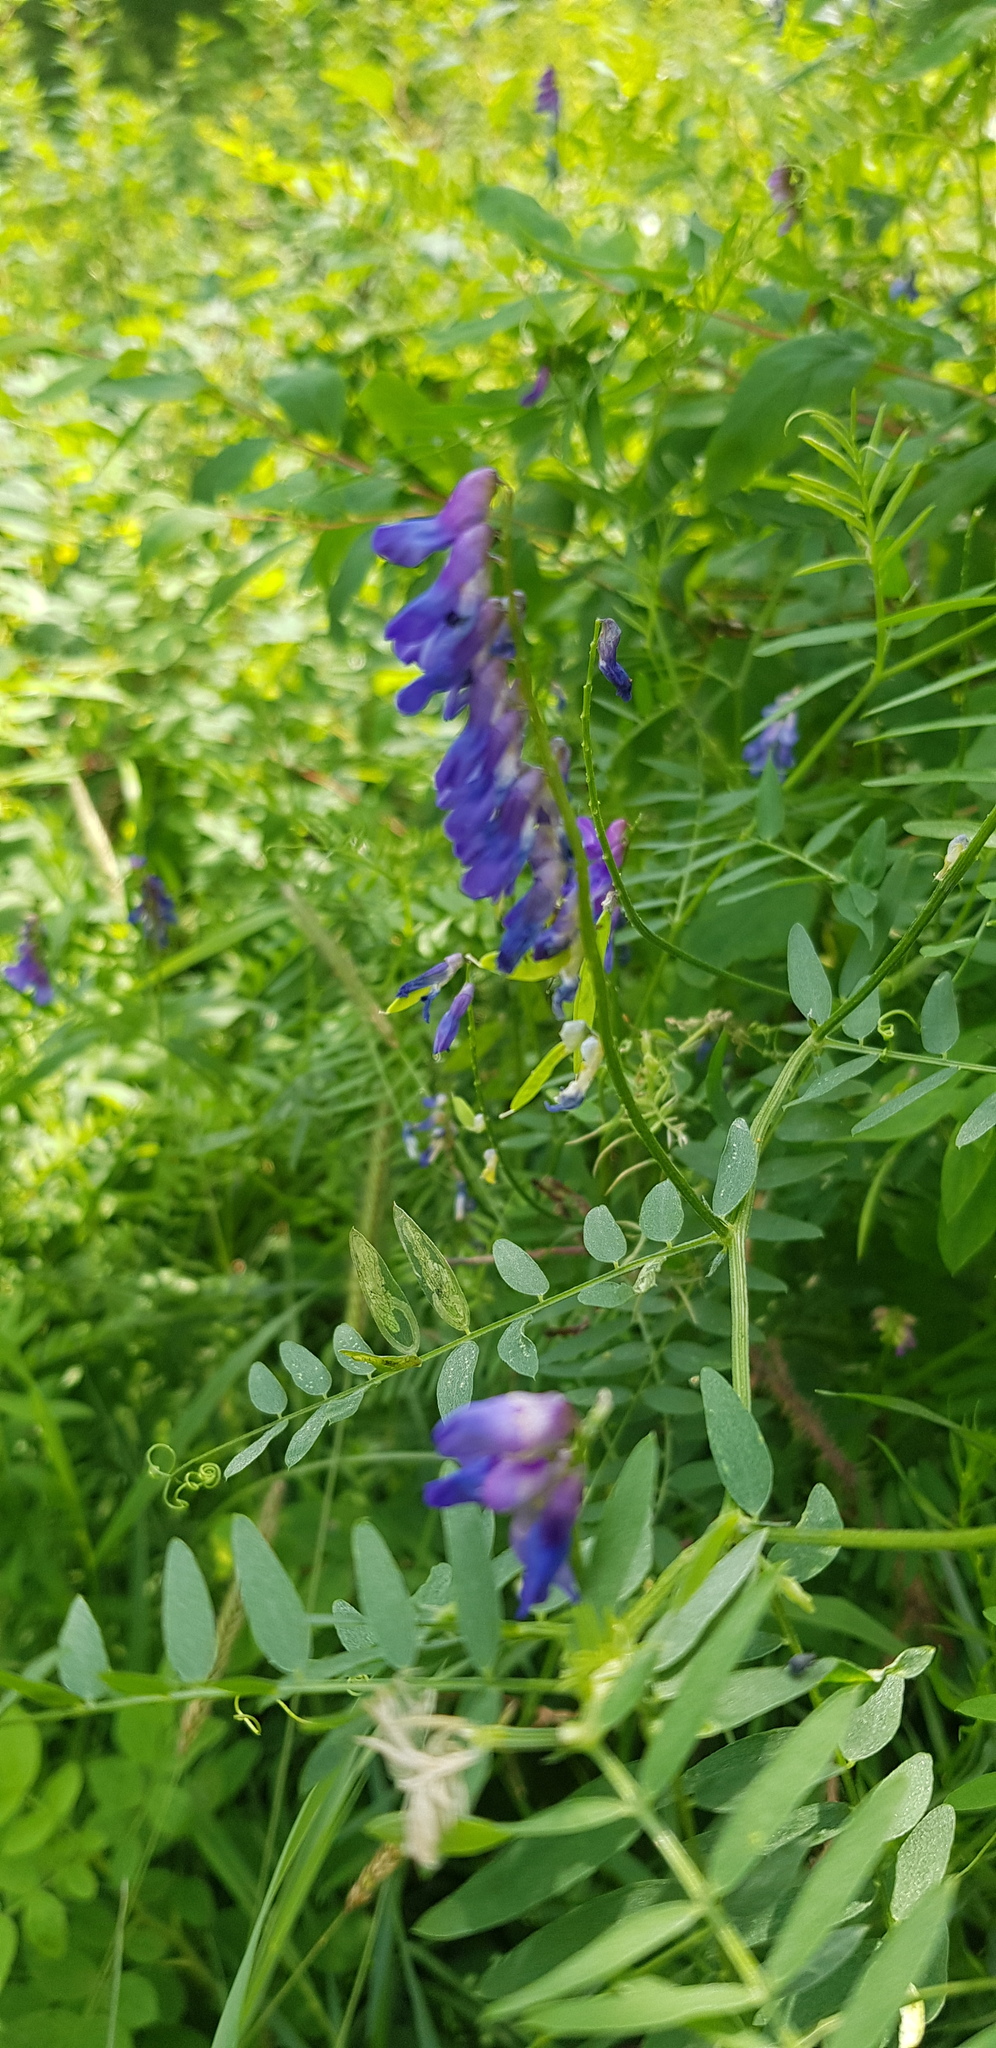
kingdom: Plantae
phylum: Tracheophyta
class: Magnoliopsida
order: Fabales
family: Fabaceae
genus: Vicia
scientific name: Vicia cracca
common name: Bird vetch
